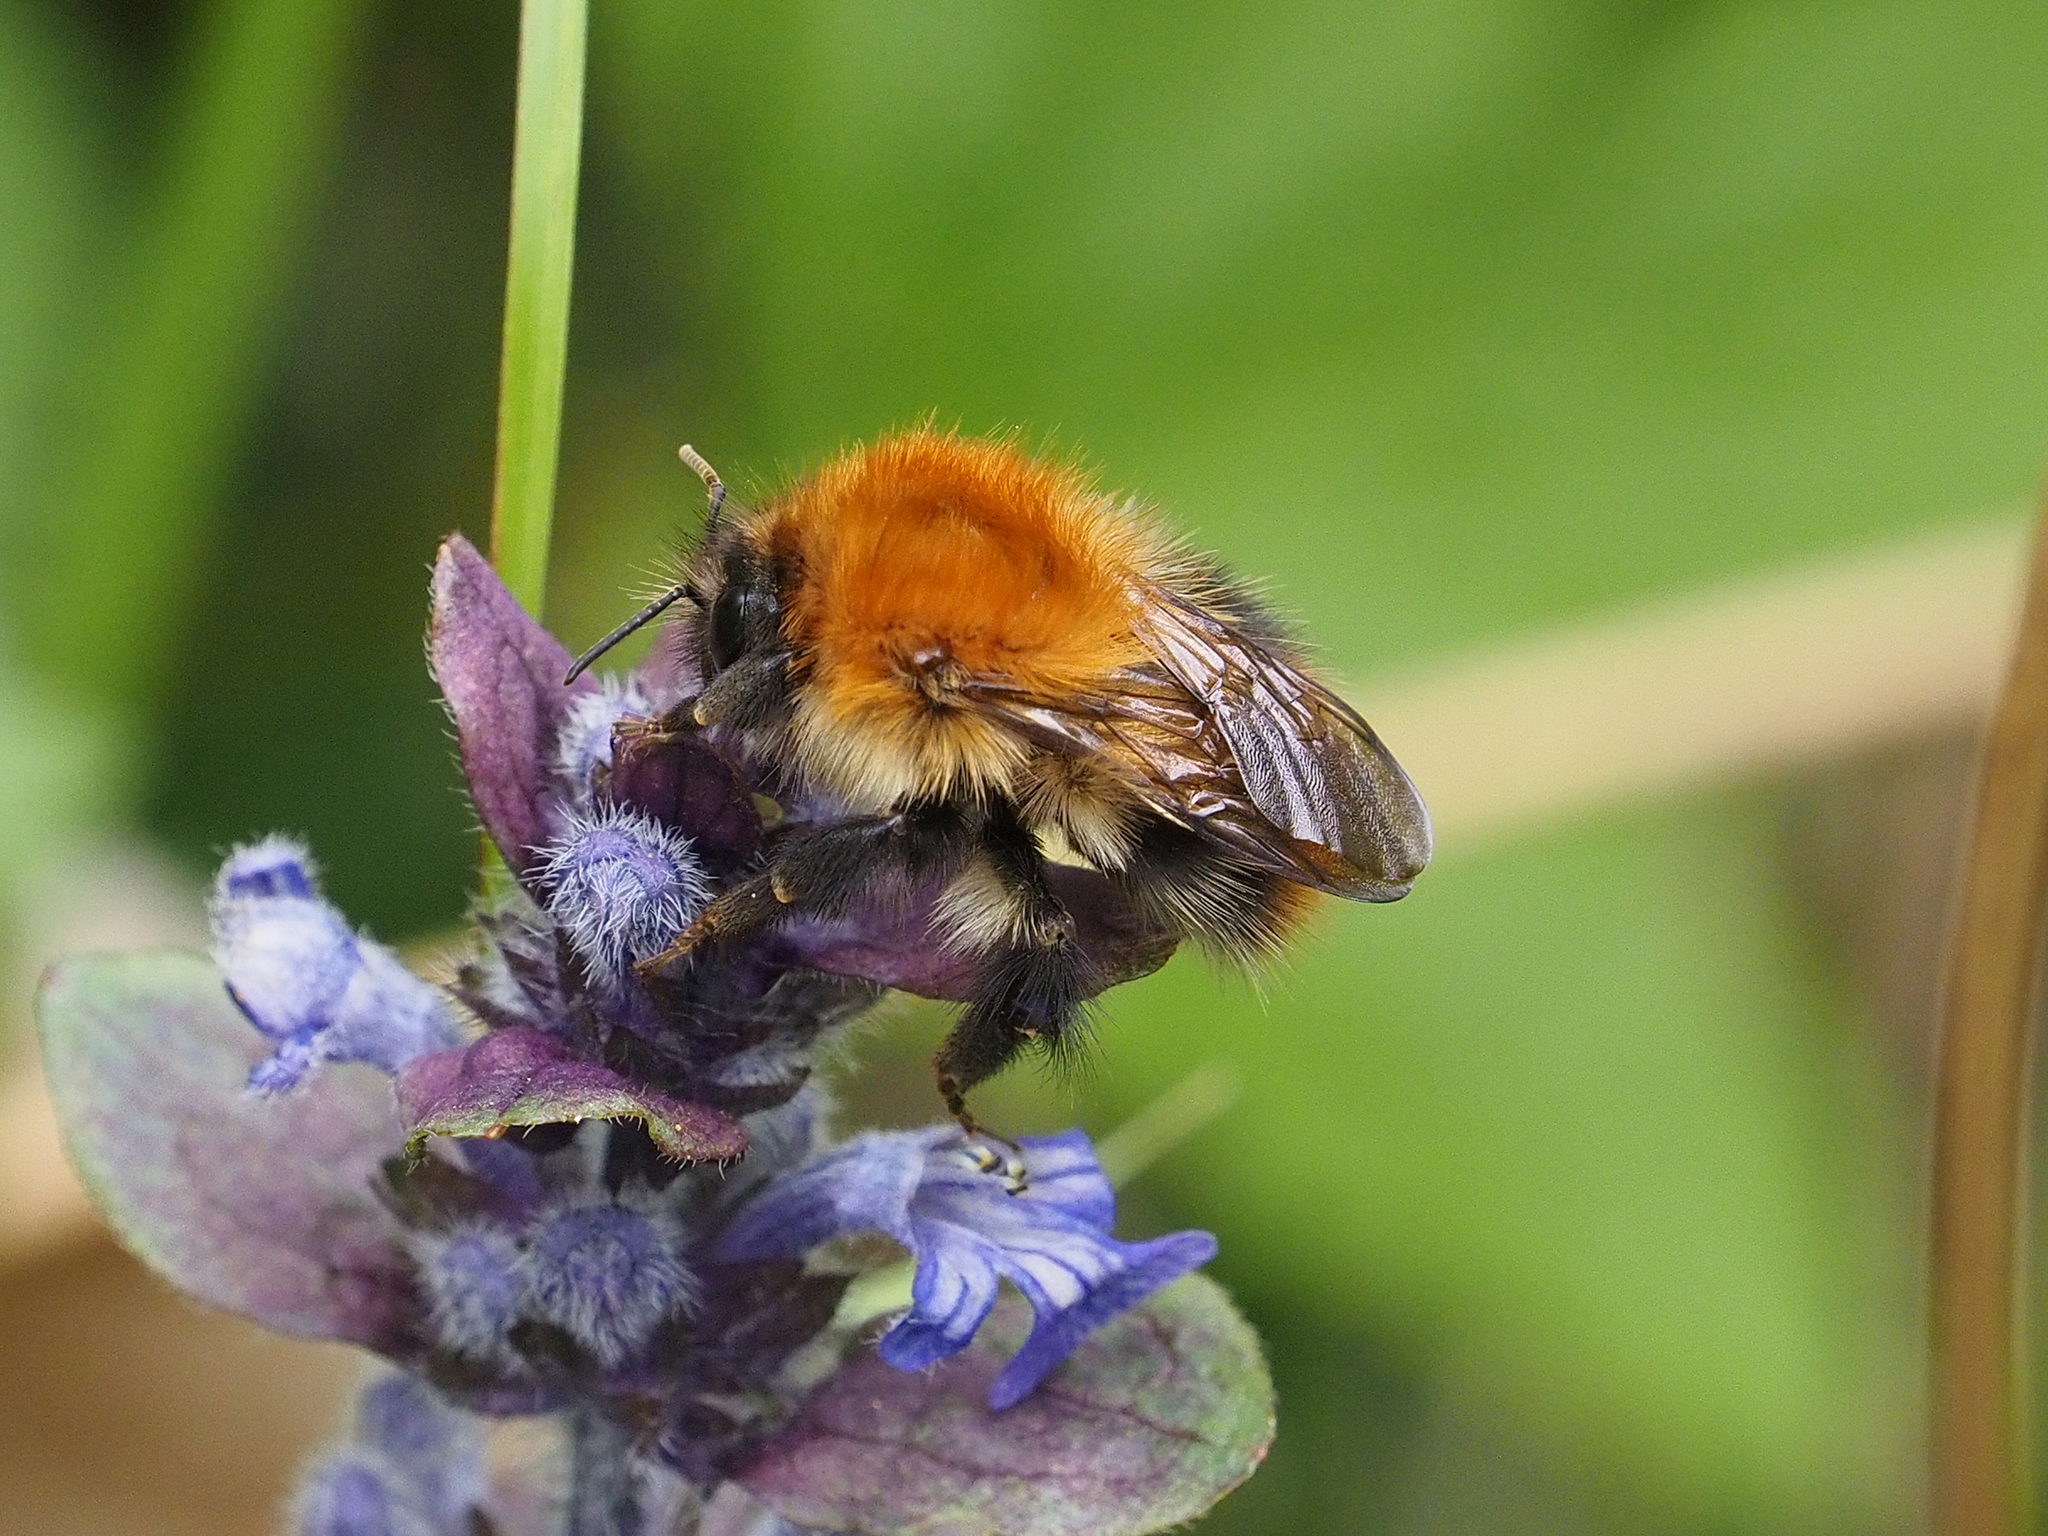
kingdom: Animalia
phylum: Arthropoda
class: Insecta
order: Hymenoptera
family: Apidae
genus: Bombus
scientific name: Bombus pascuorum
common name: Common carder bee
